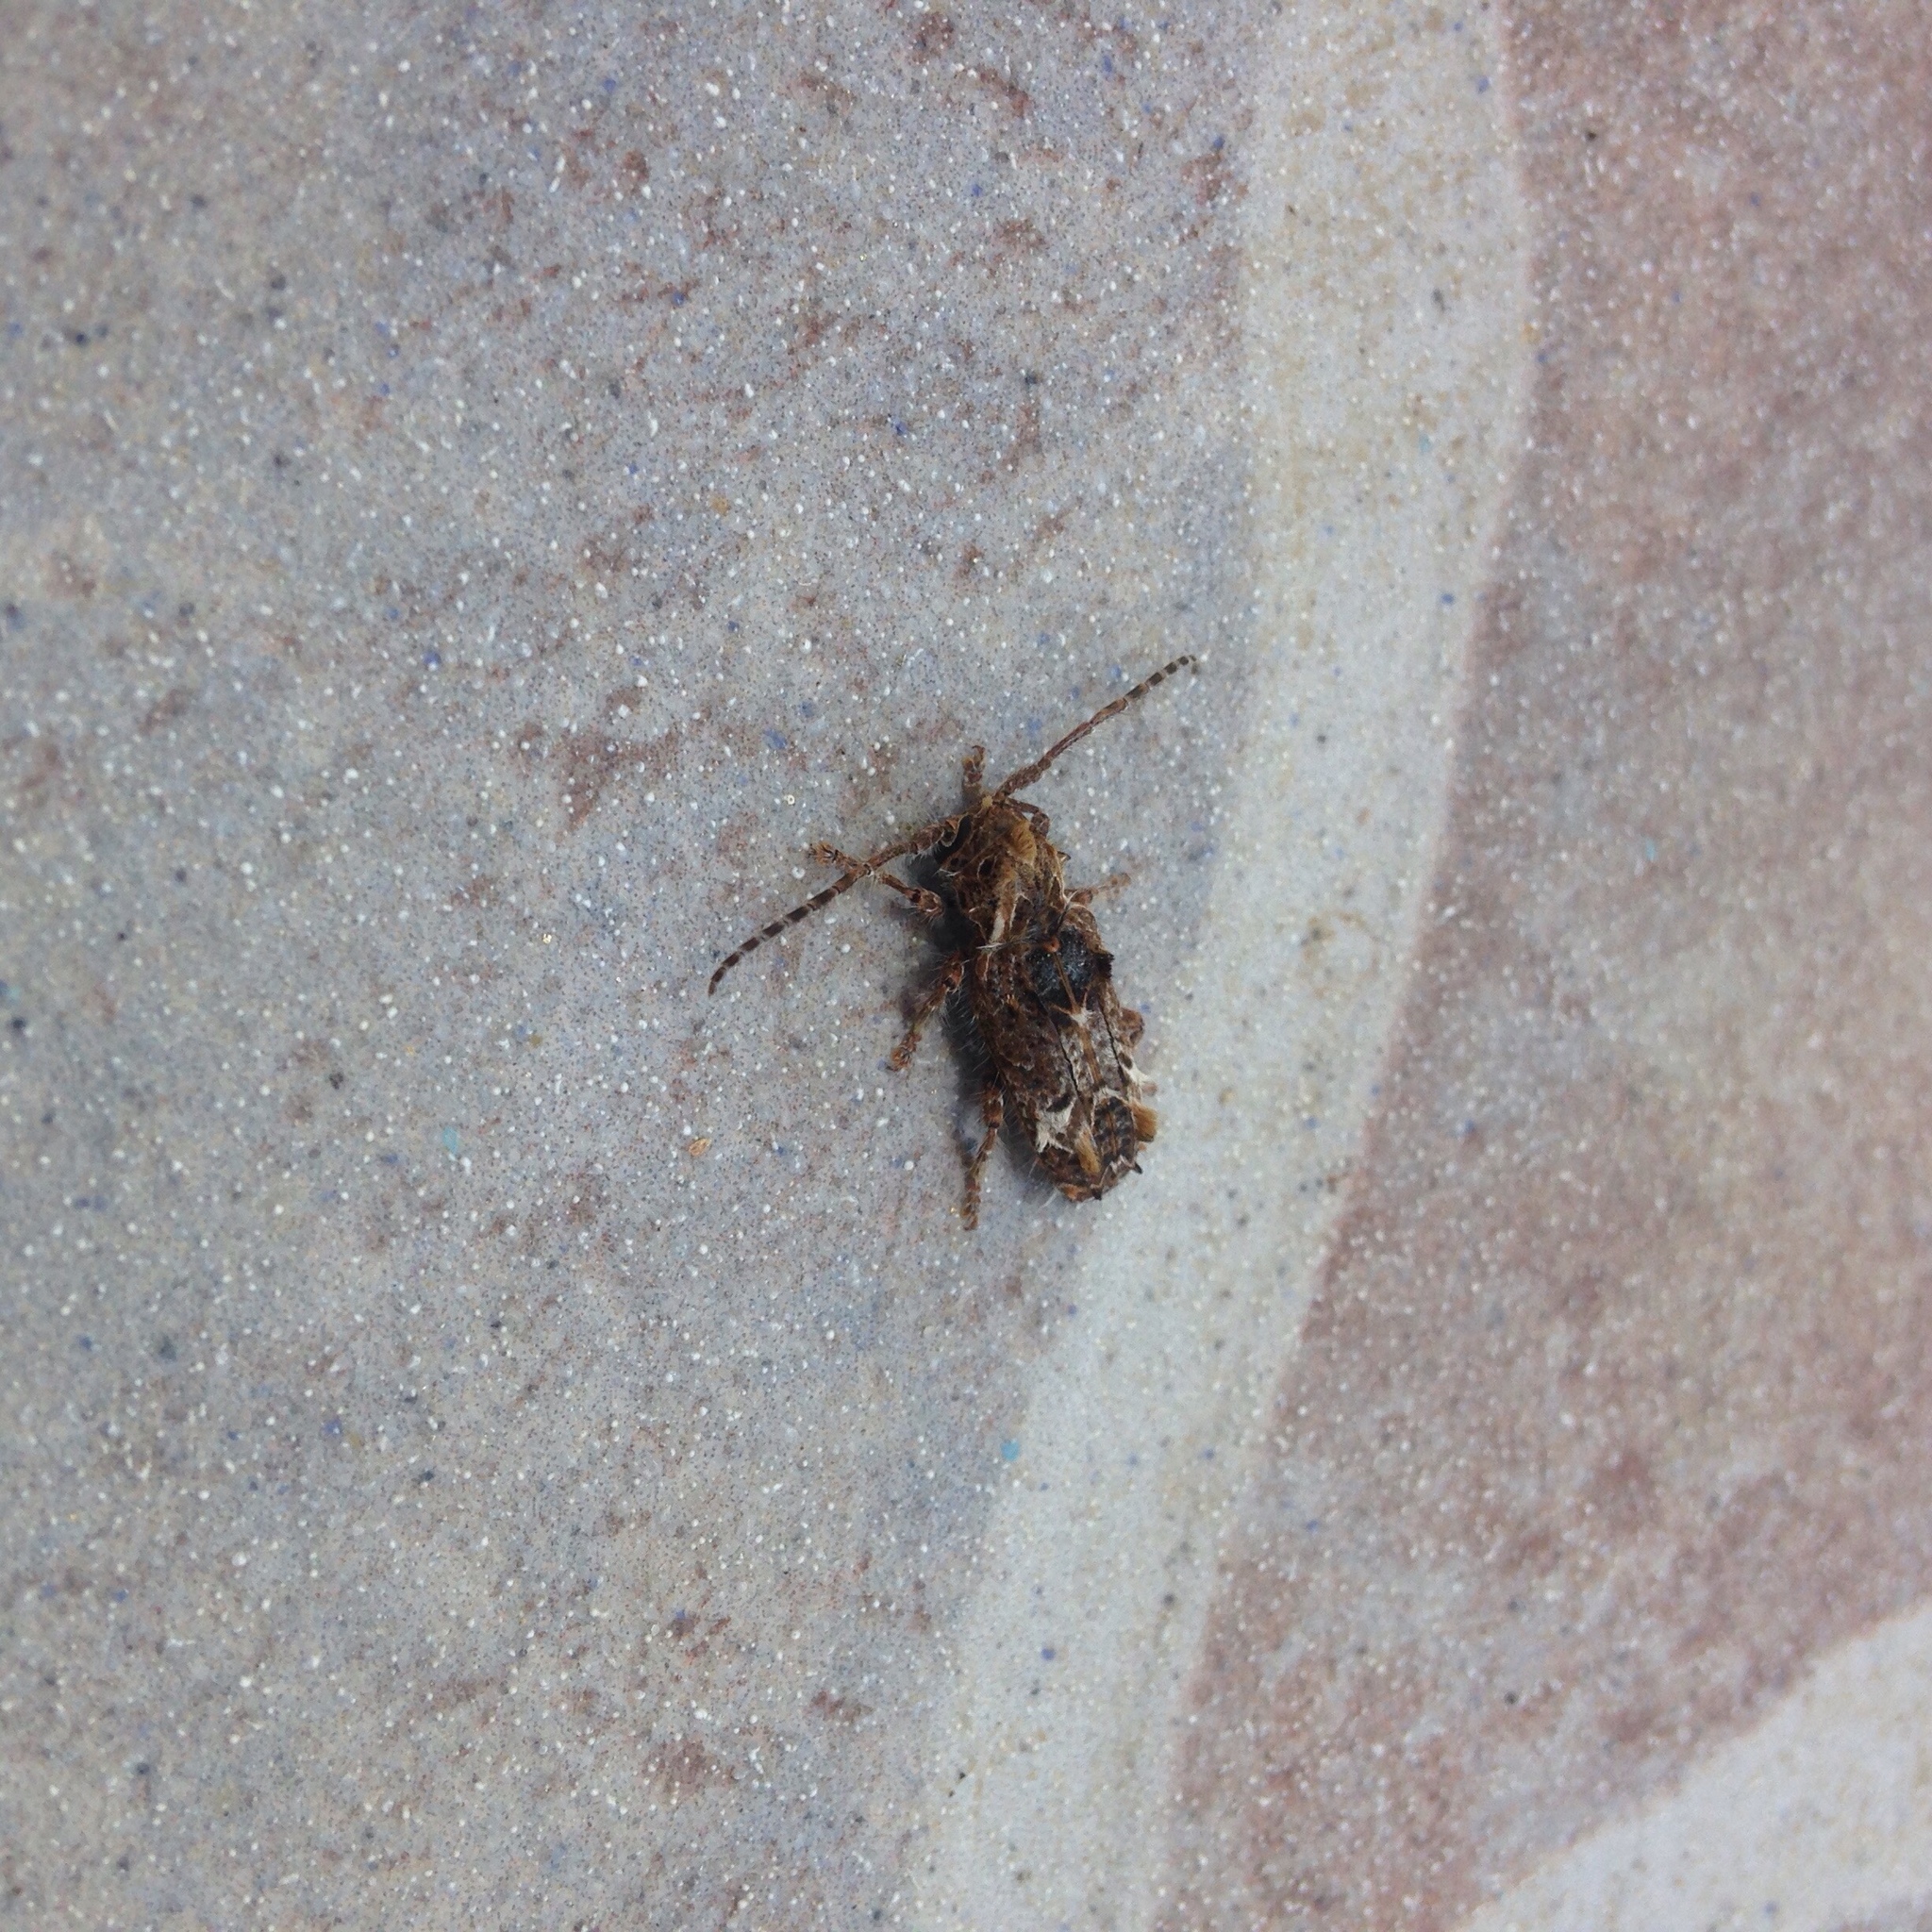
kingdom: Animalia
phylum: Arthropoda
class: Insecta
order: Coleoptera
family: Cerambycidae
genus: Desmiphora
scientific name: Desmiphora hirticollis
